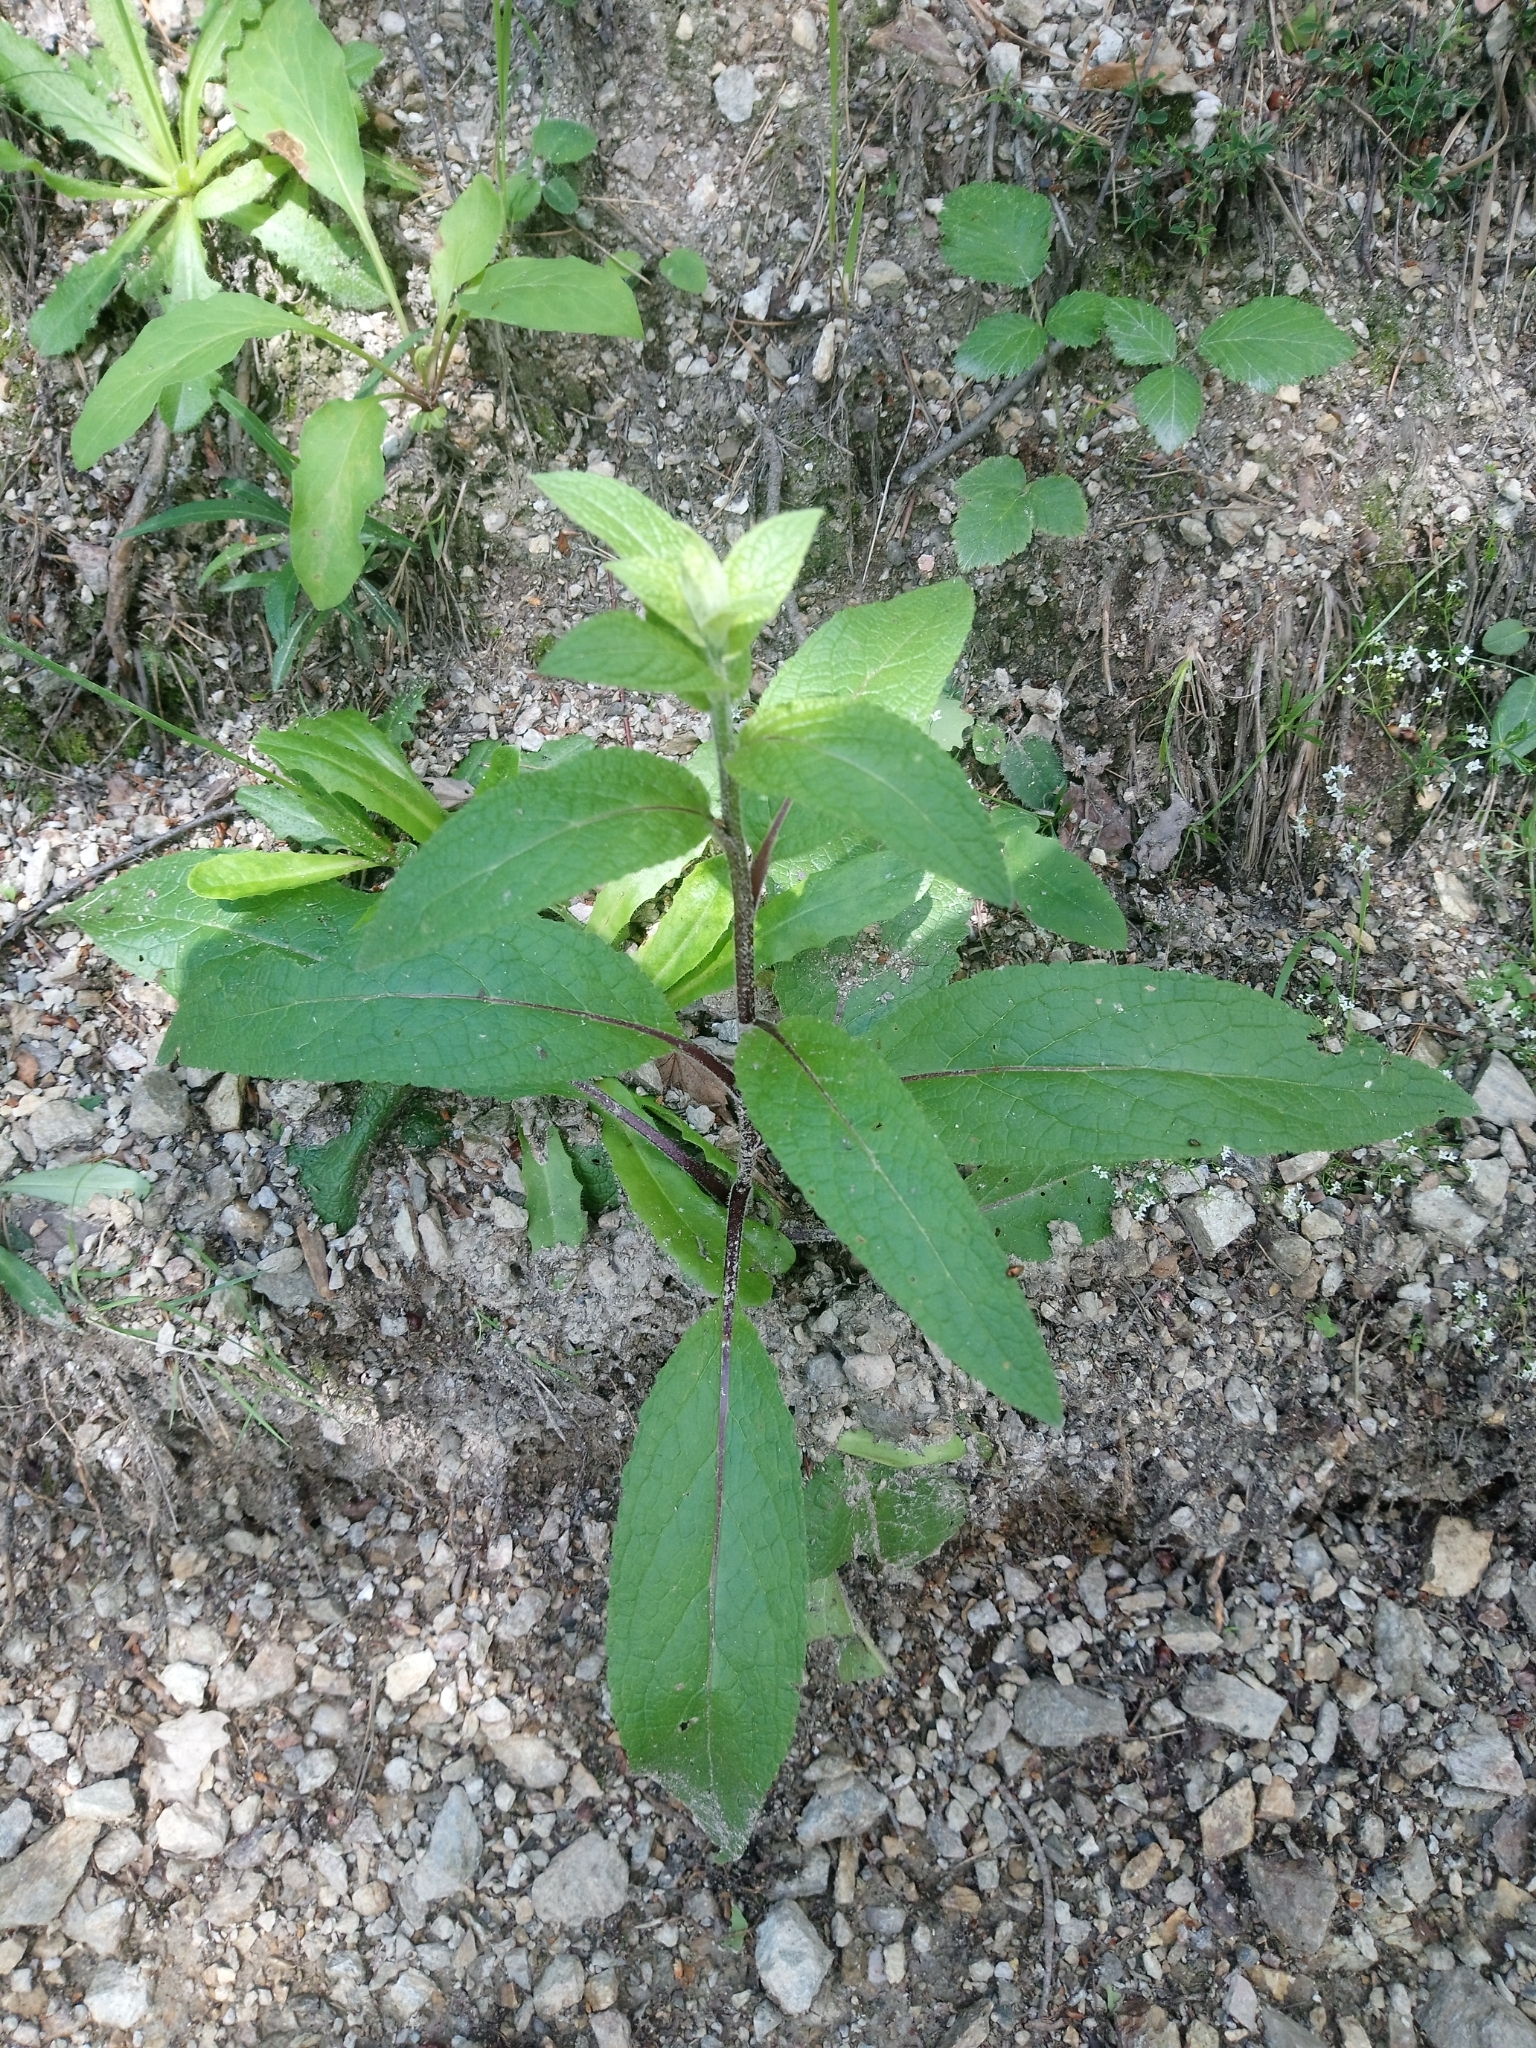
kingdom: Plantae
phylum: Tracheophyta
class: Magnoliopsida
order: Lamiales
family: Scrophulariaceae
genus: Verbascum
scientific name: Verbascum chaixii
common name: Nettle-leaved mullein
